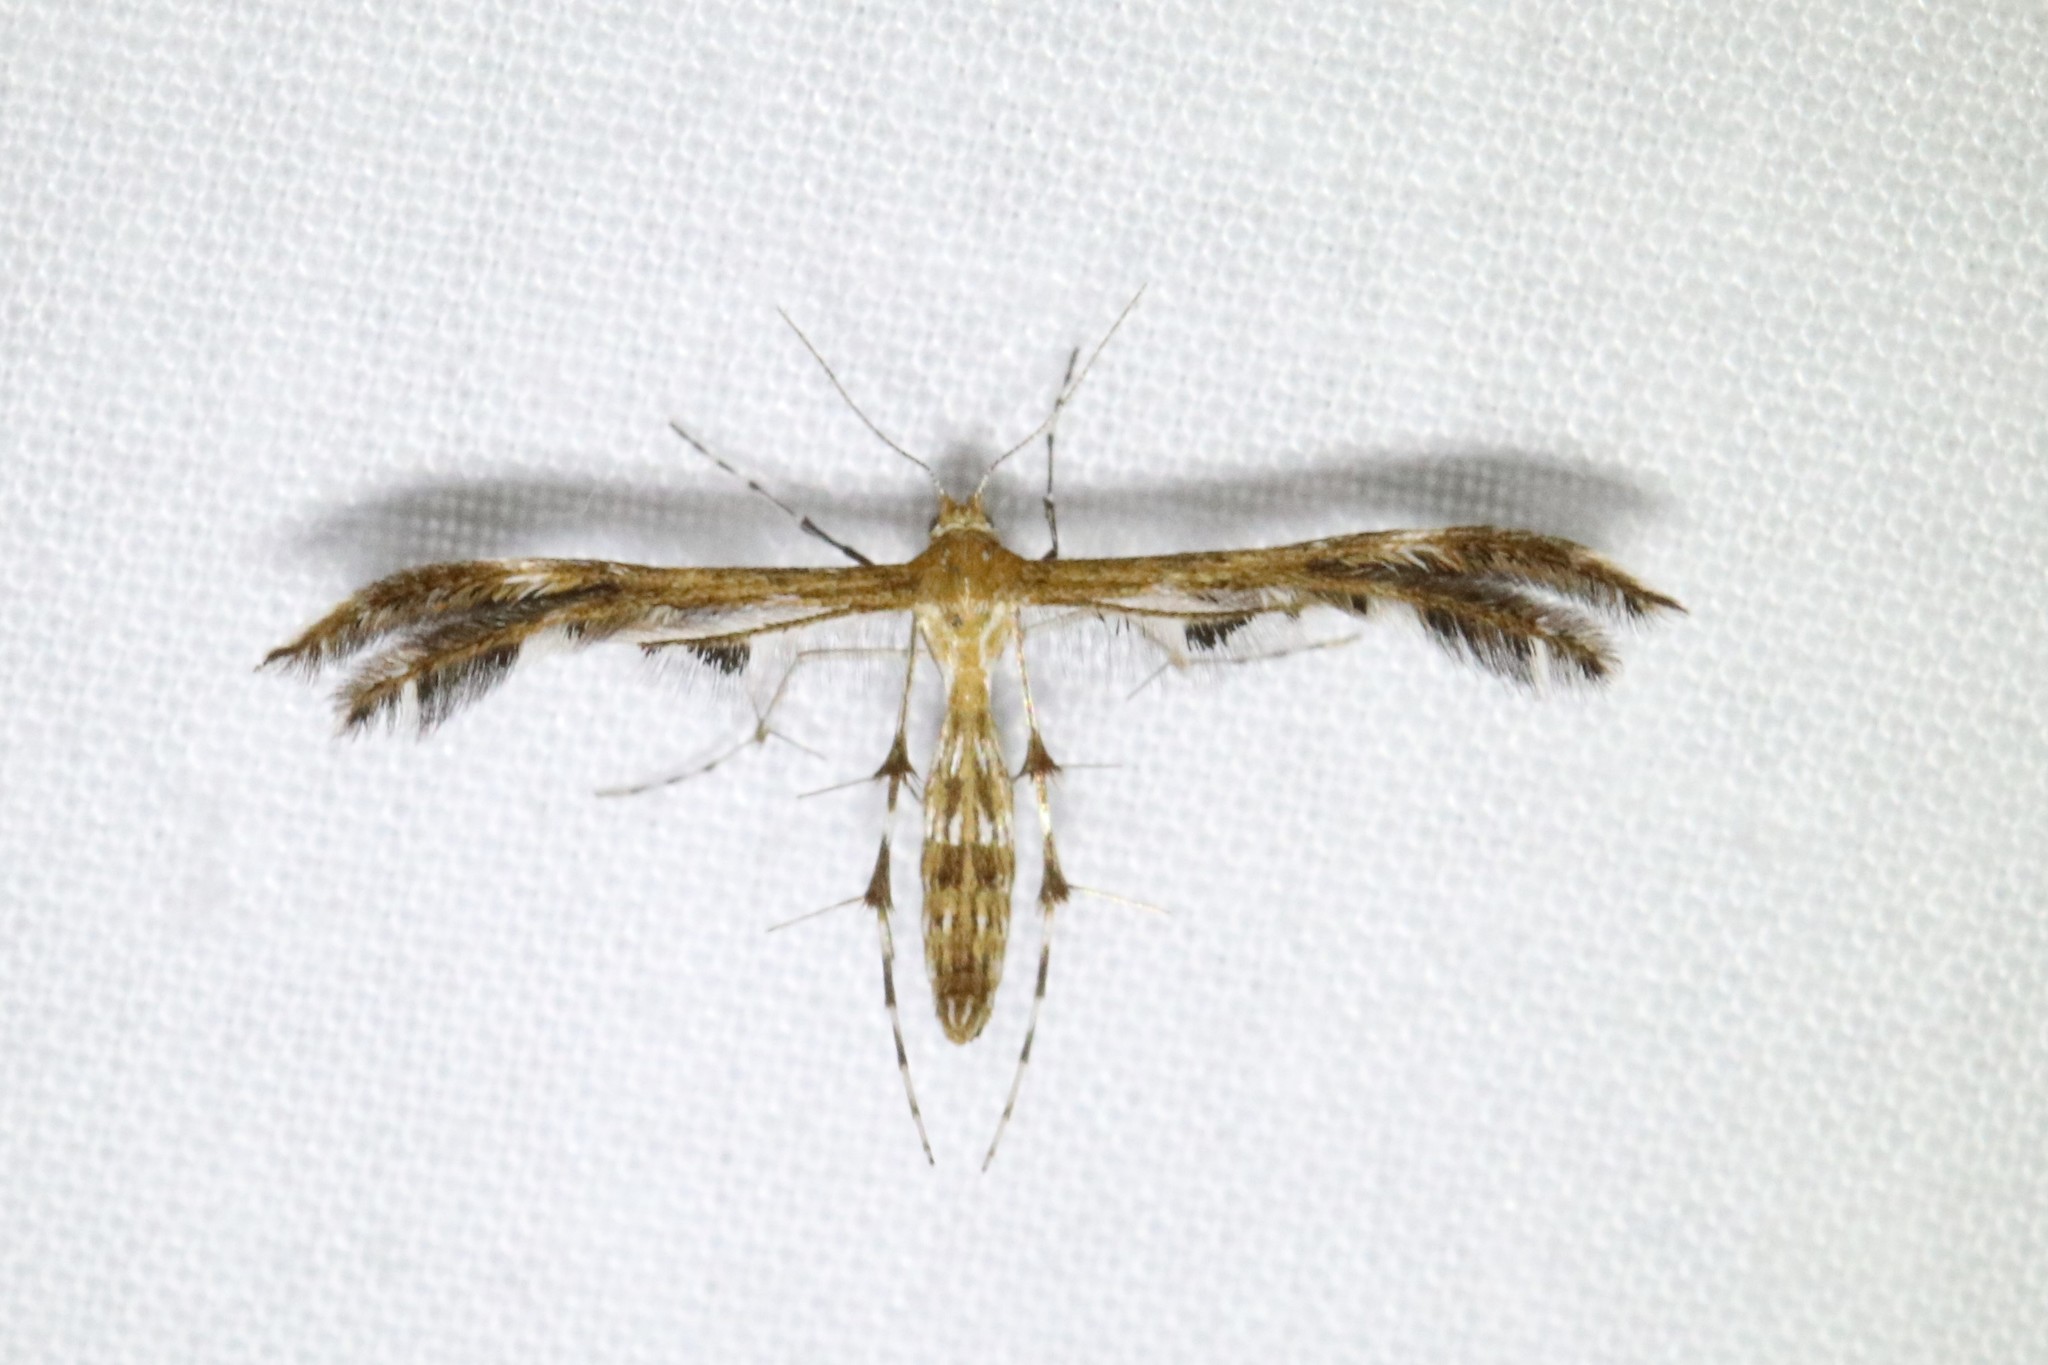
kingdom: Animalia
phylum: Arthropoda
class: Insecta
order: Lepidoptera
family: Pterophoridae
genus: Dejongia
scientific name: Dejongia lobidactylus
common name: Lobed plume moth
